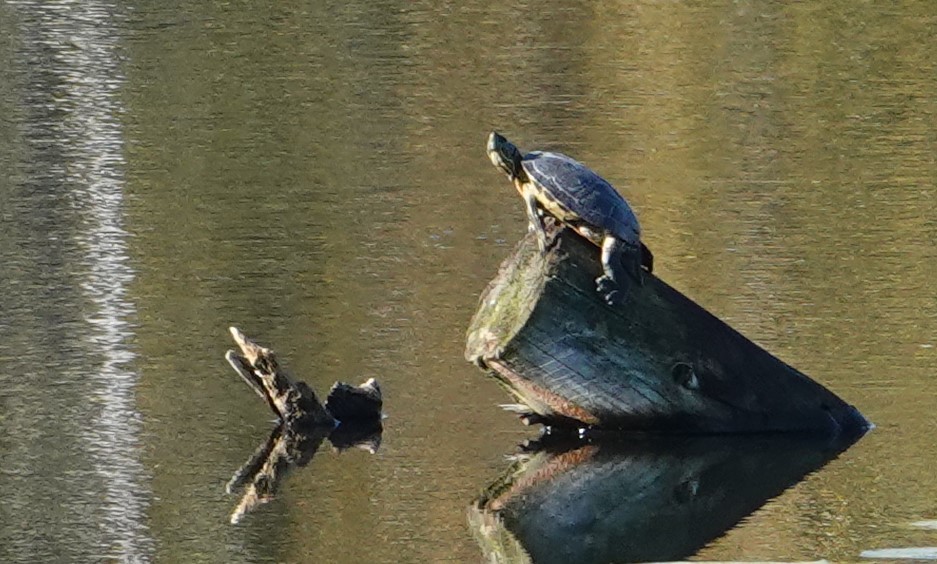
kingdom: Animalia
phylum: Chordata
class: Testudines
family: Emydidae
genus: Trachemys
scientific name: Trachemys scripta
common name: Slider
